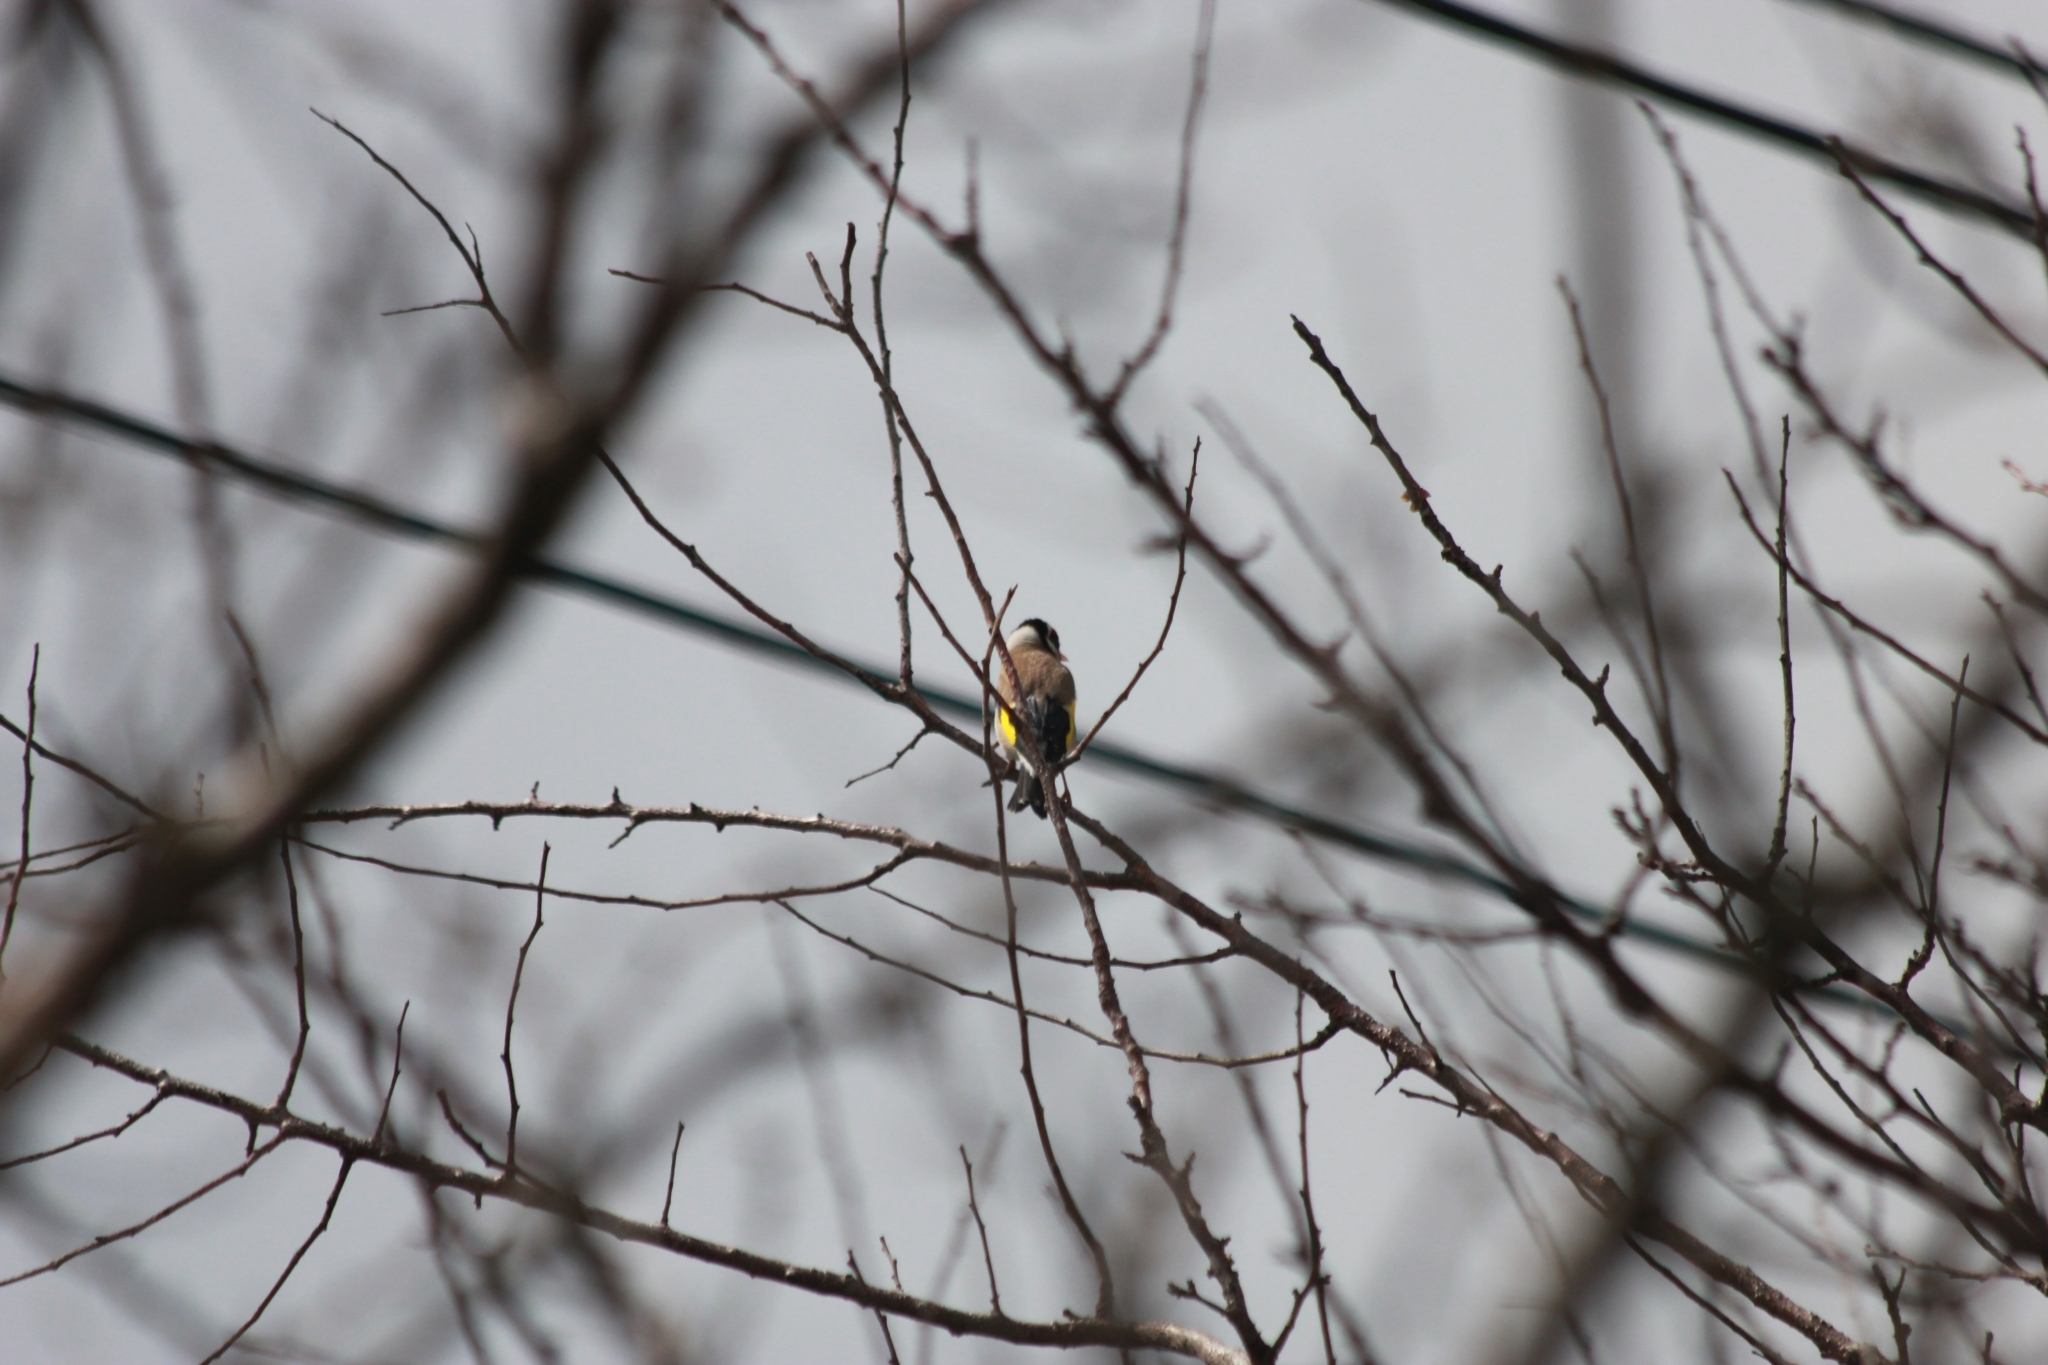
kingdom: Animalia
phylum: Chordata
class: Aves
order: Passeriformes
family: Fringillidae
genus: Carduelis
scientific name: Carduelis carduelis
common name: European goldfinch
